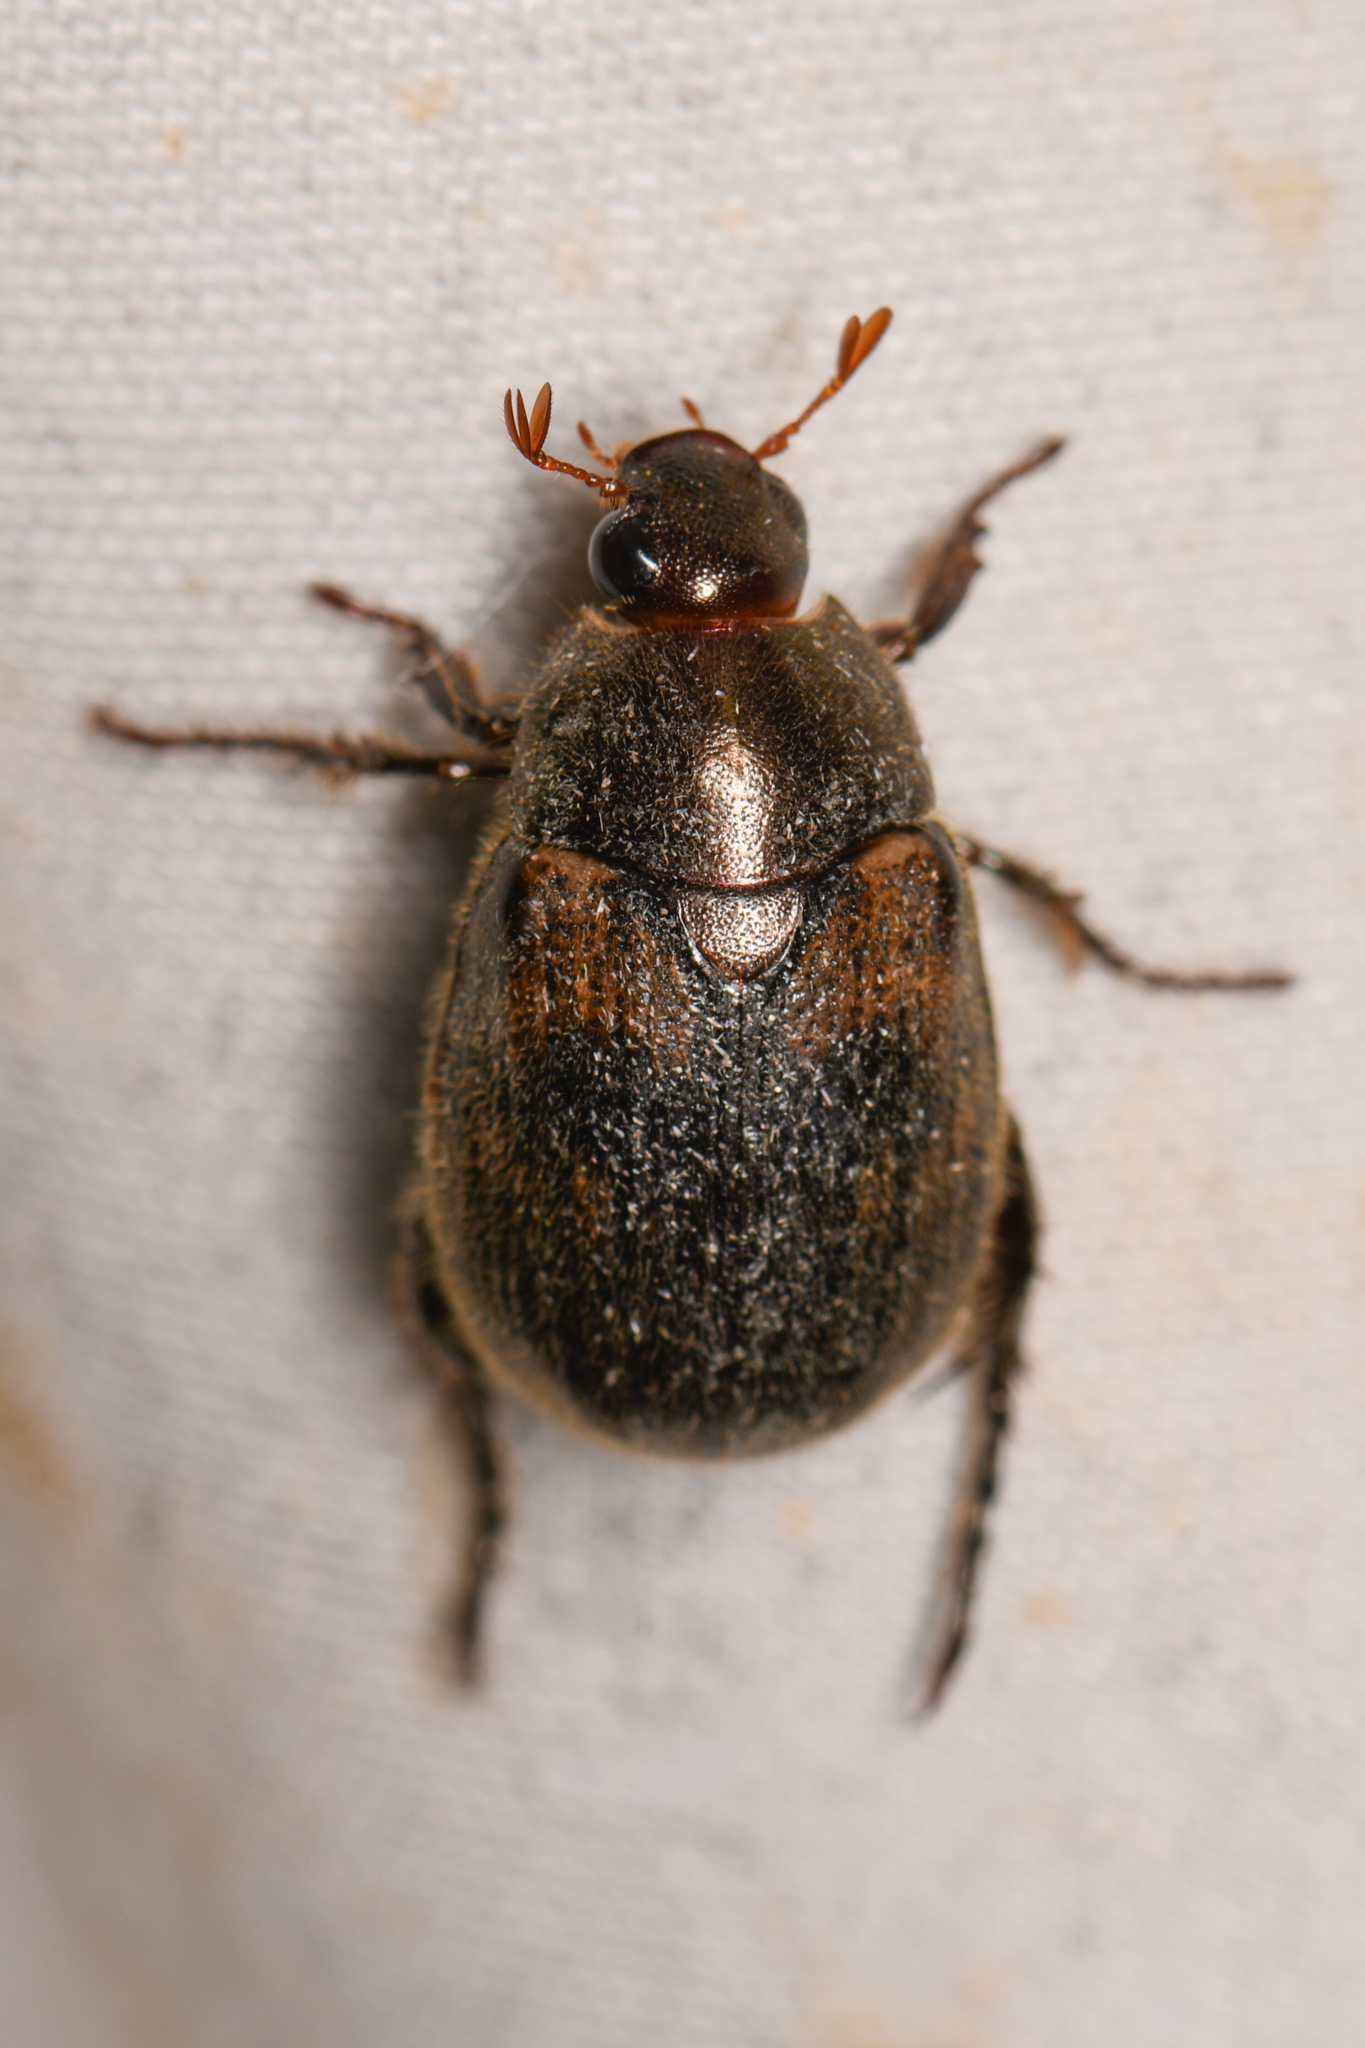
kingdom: Animalia
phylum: Arthropoda
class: Insecta
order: Coleoptera
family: Scarabaeidae
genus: Paranomala
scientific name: Paranomala eucoma
